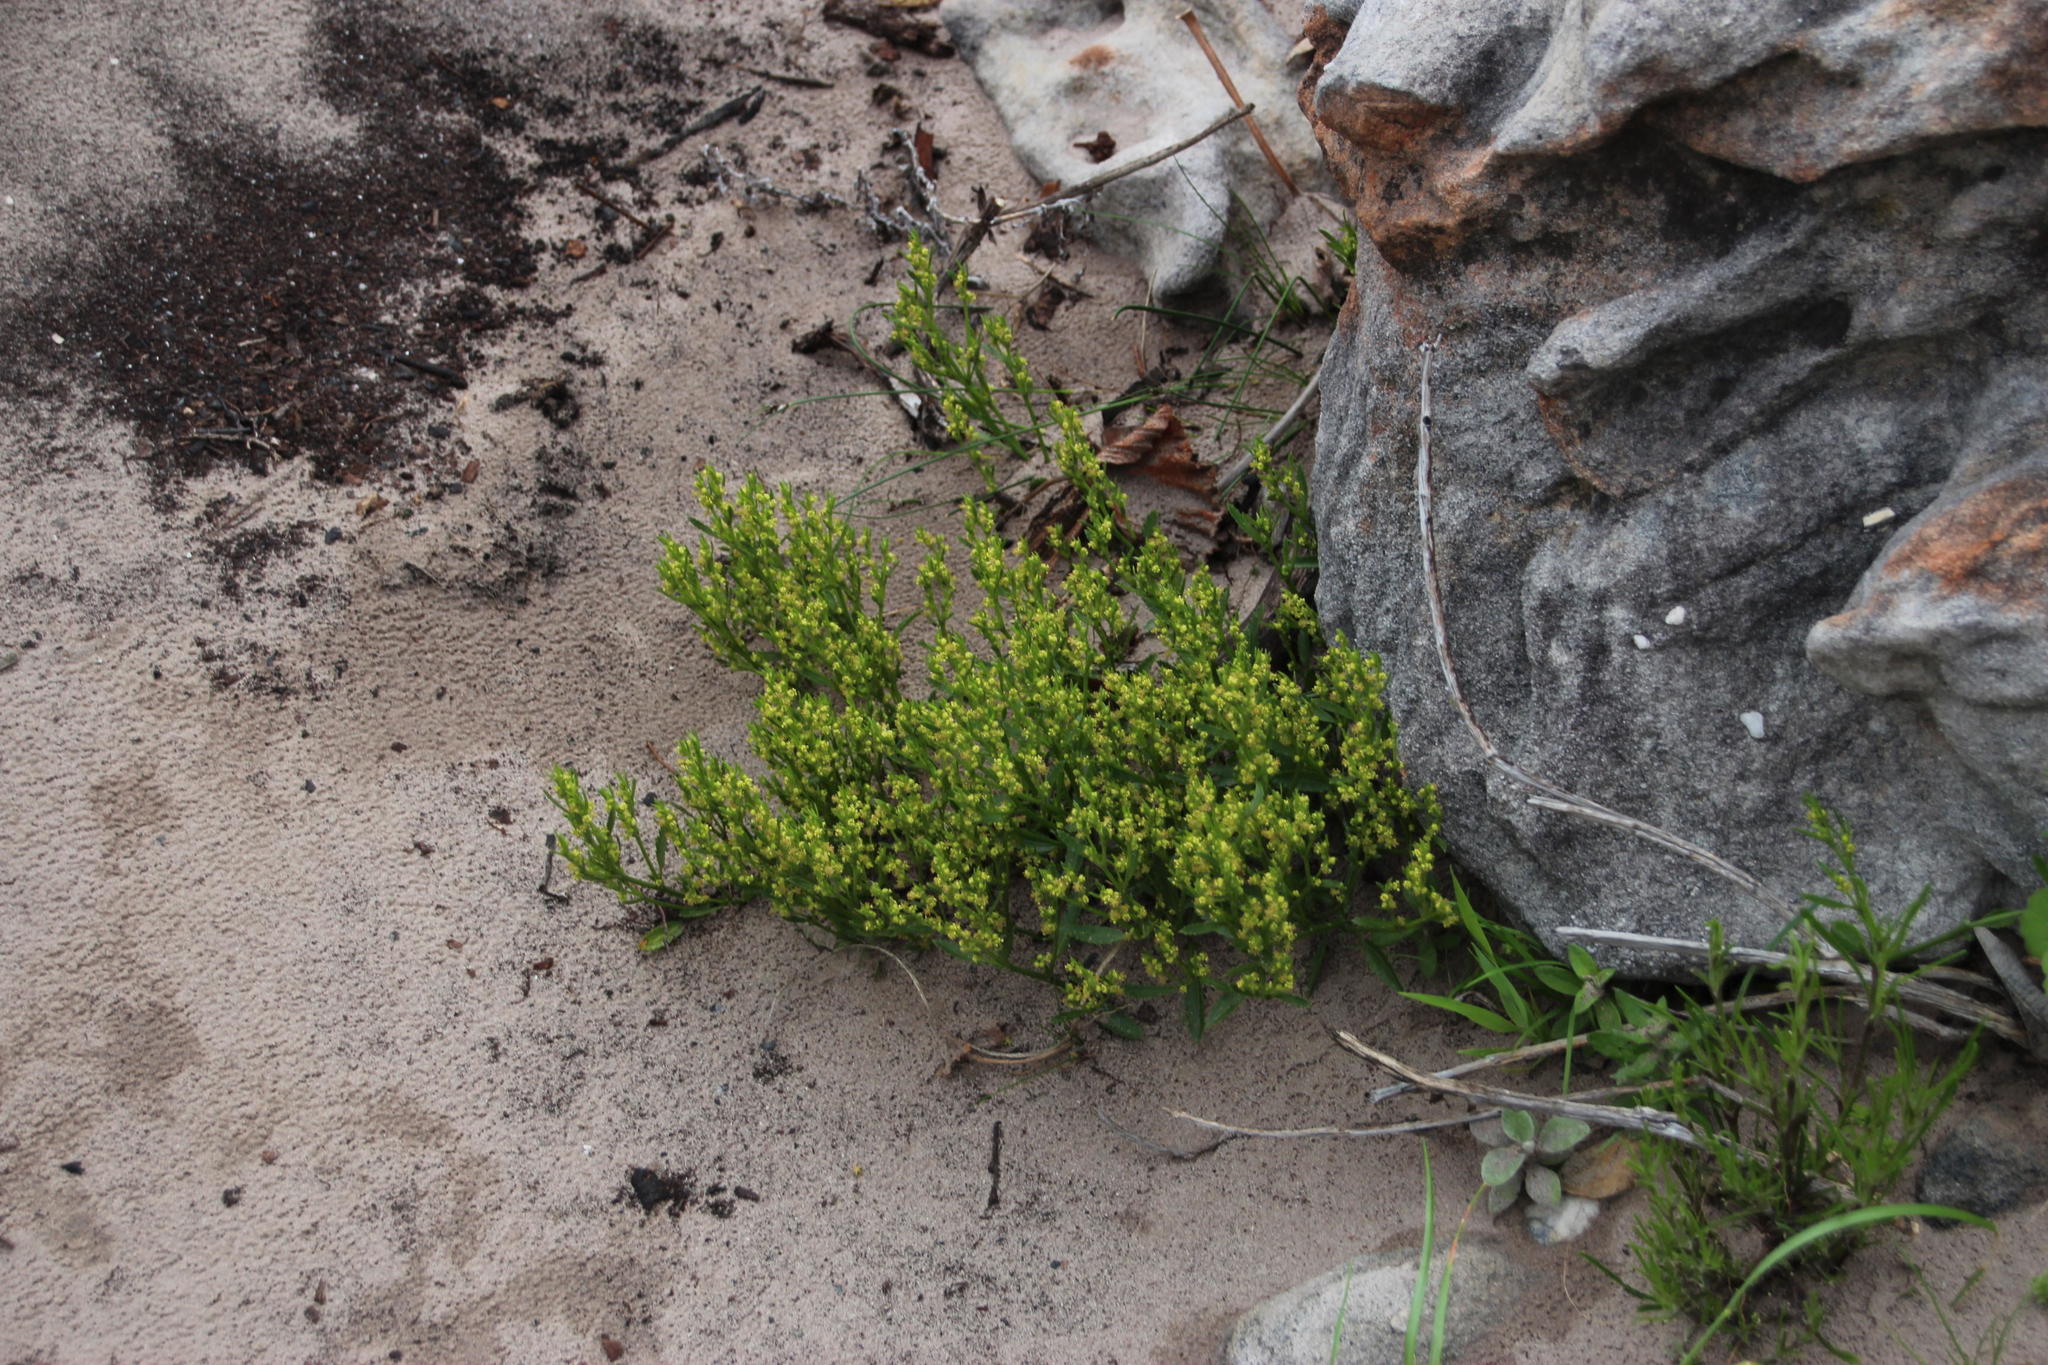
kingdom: Plantae
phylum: Tracheophyta
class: Magnoliopsida
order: Malpighiales
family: Euphorbiaceae
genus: Adenocline
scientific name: Adenocline pauciflora
